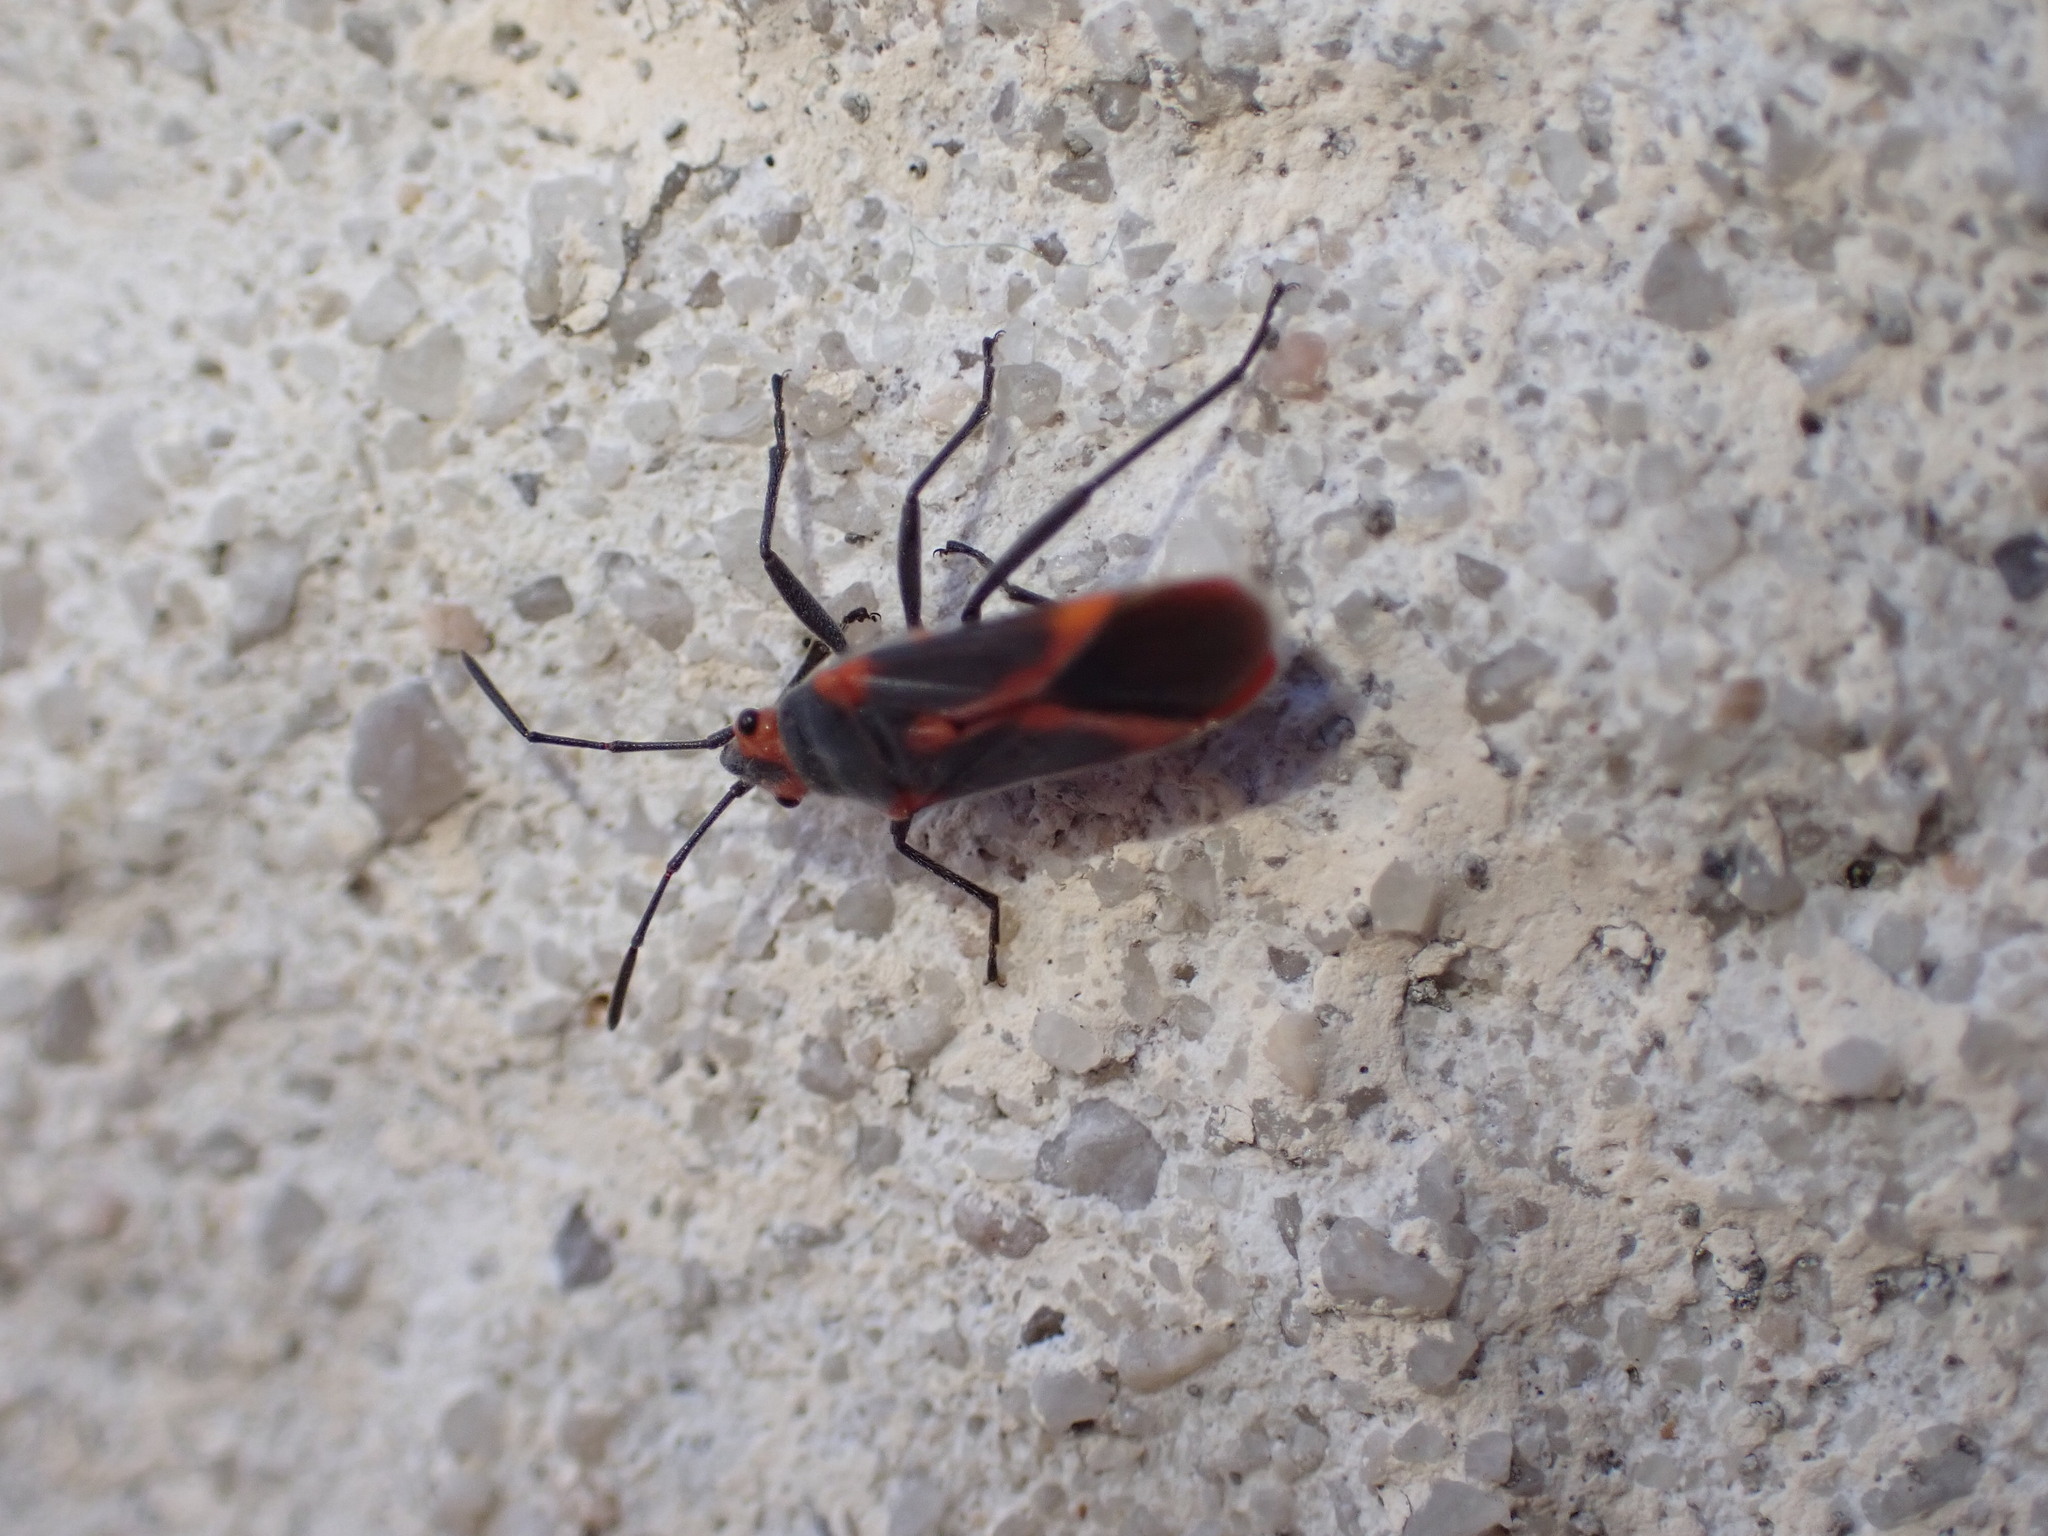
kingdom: Animalia
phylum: Arthropoda
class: Insecta
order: Hemiptera
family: Lygaeidae
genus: Caenocoris
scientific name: Caenocoris nerii
